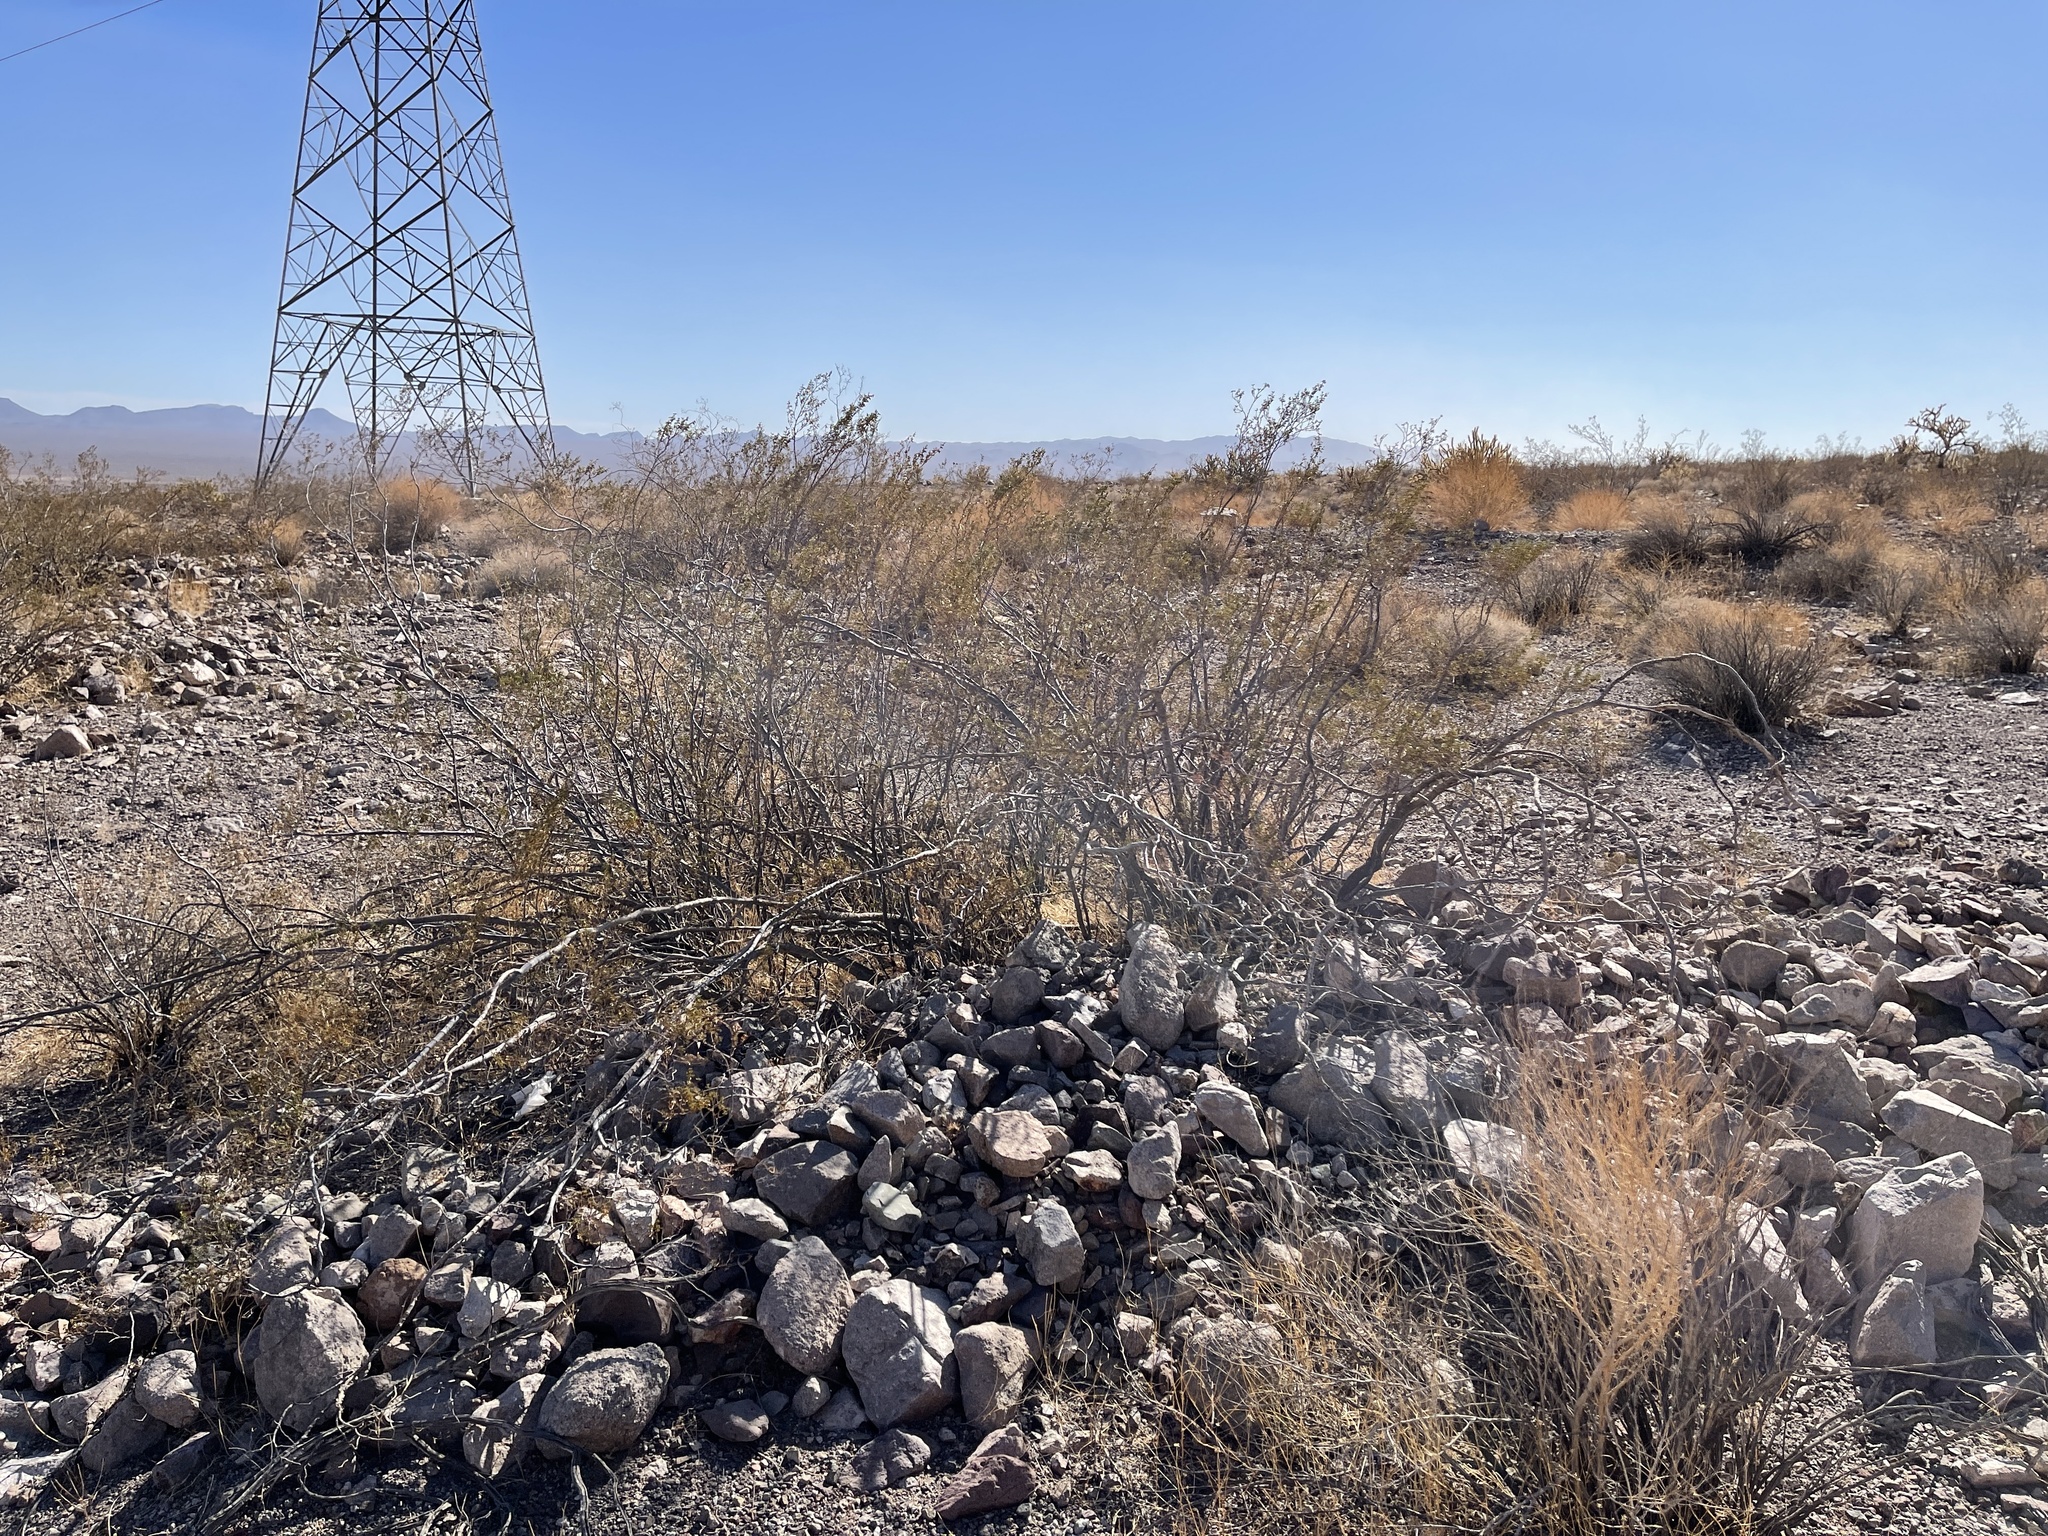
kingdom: Plantae
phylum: Tracheophyta
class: Magnoliopsida
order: Zygophyllales
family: Zygophyllaceae
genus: Larrea
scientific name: Larrea tridentata
